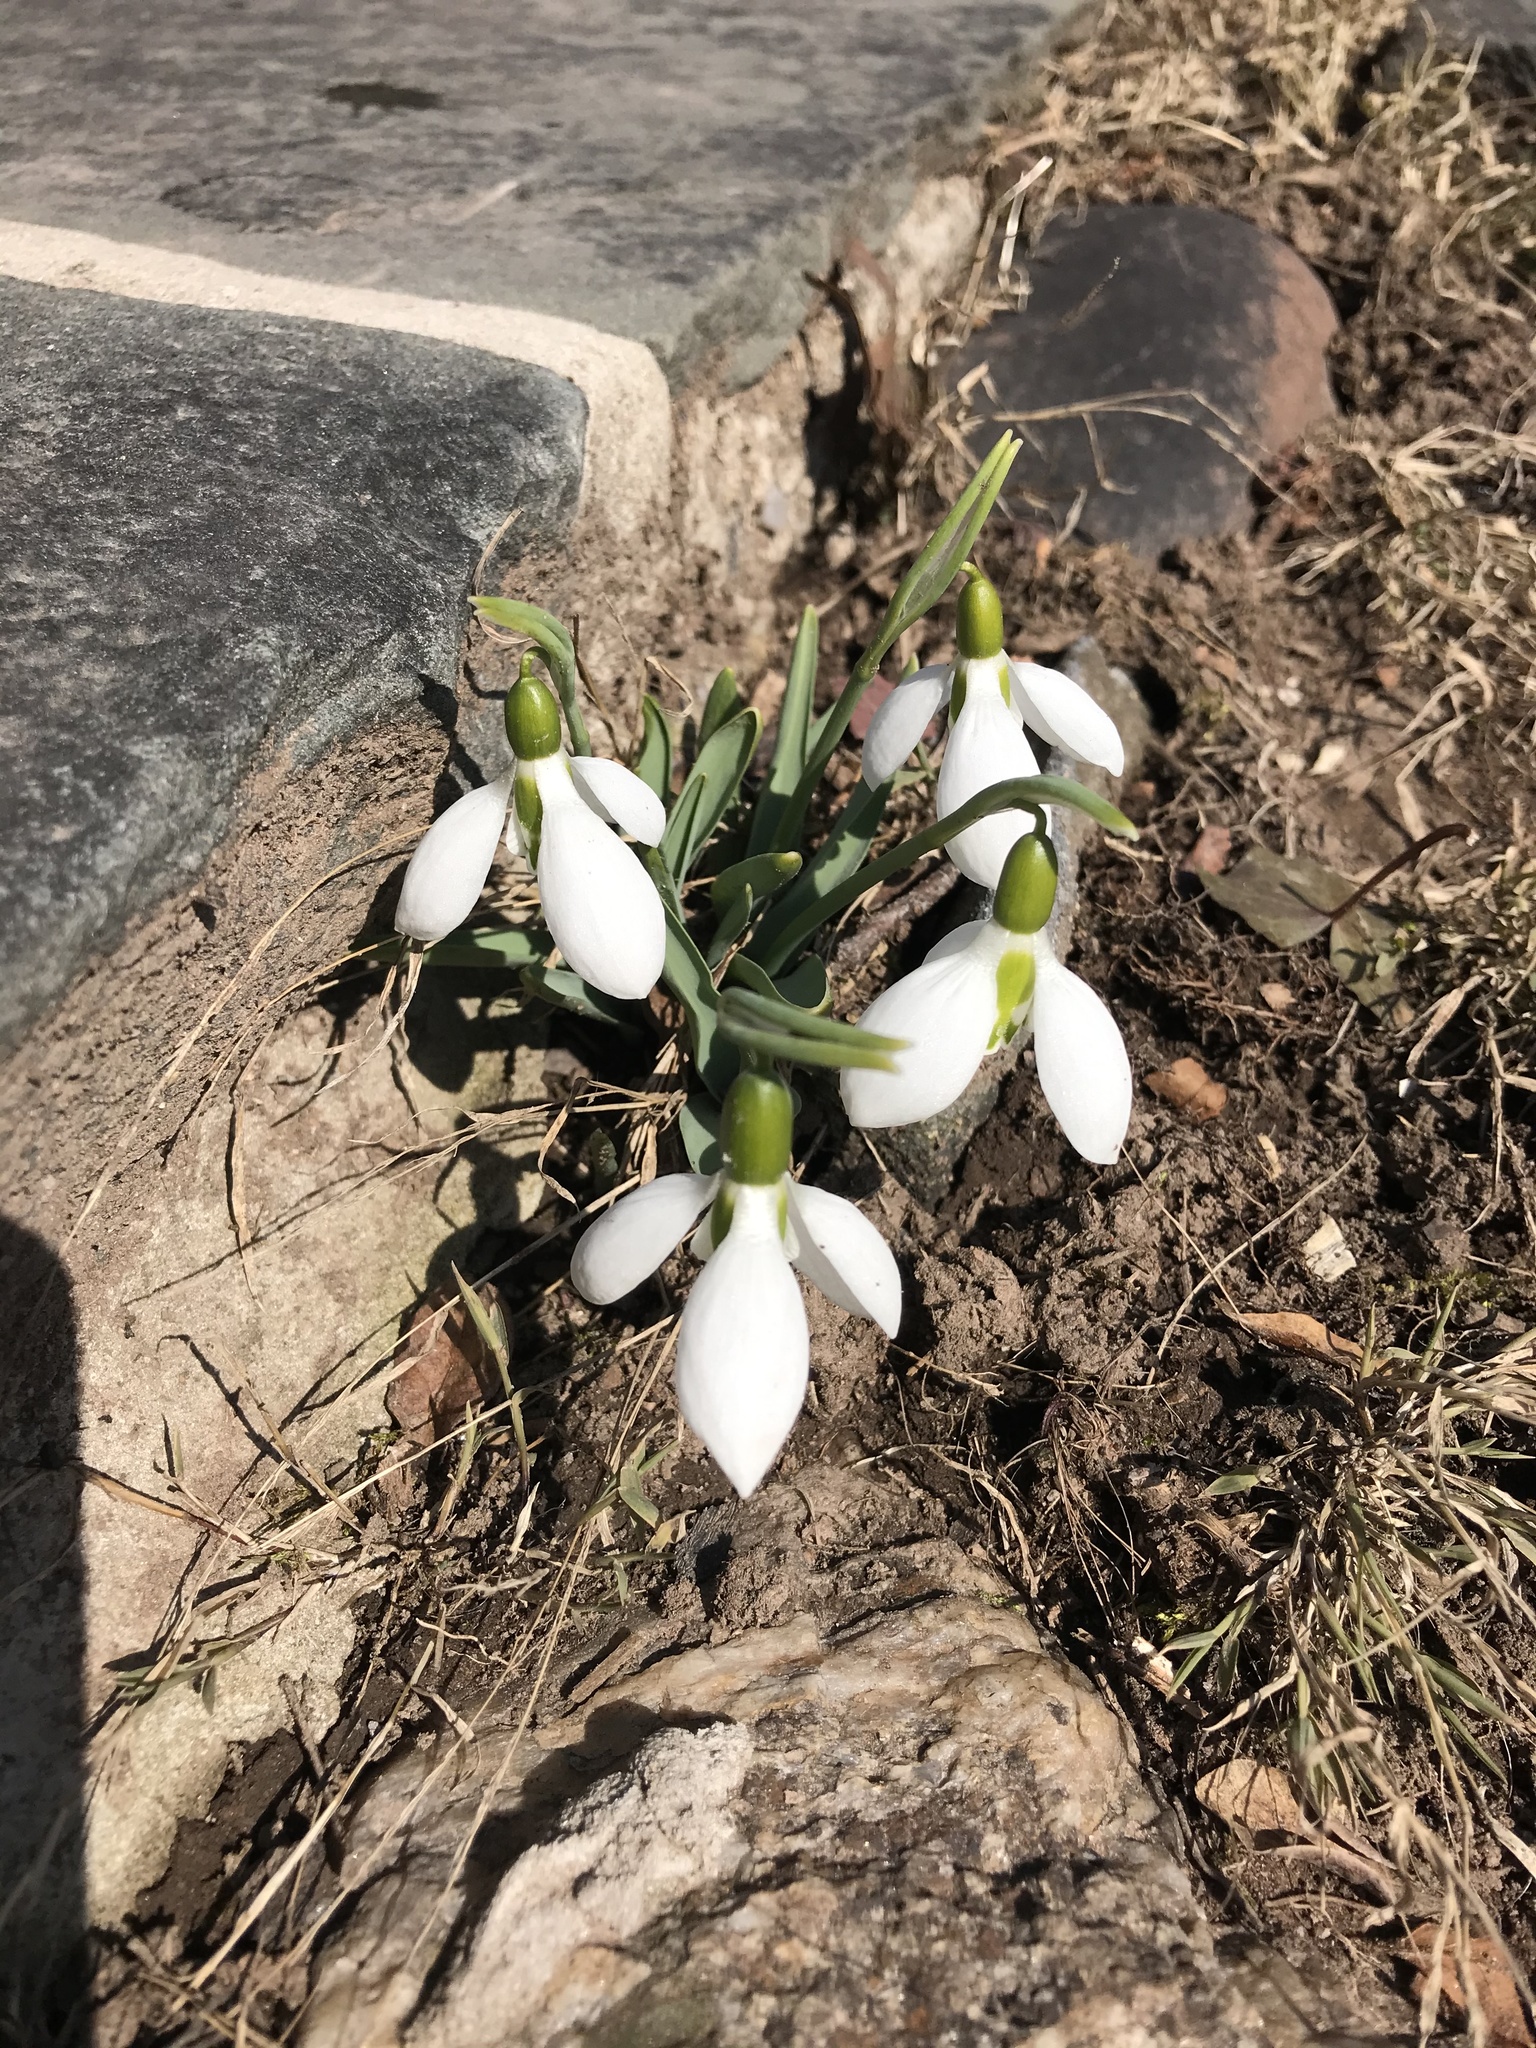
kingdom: Plantae
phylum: Tracheophyta
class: Liliopsida
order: Asparagales
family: Amaryllidaceae
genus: Galanthus
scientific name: Galanthus elwesii
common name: Greater snowdrop
